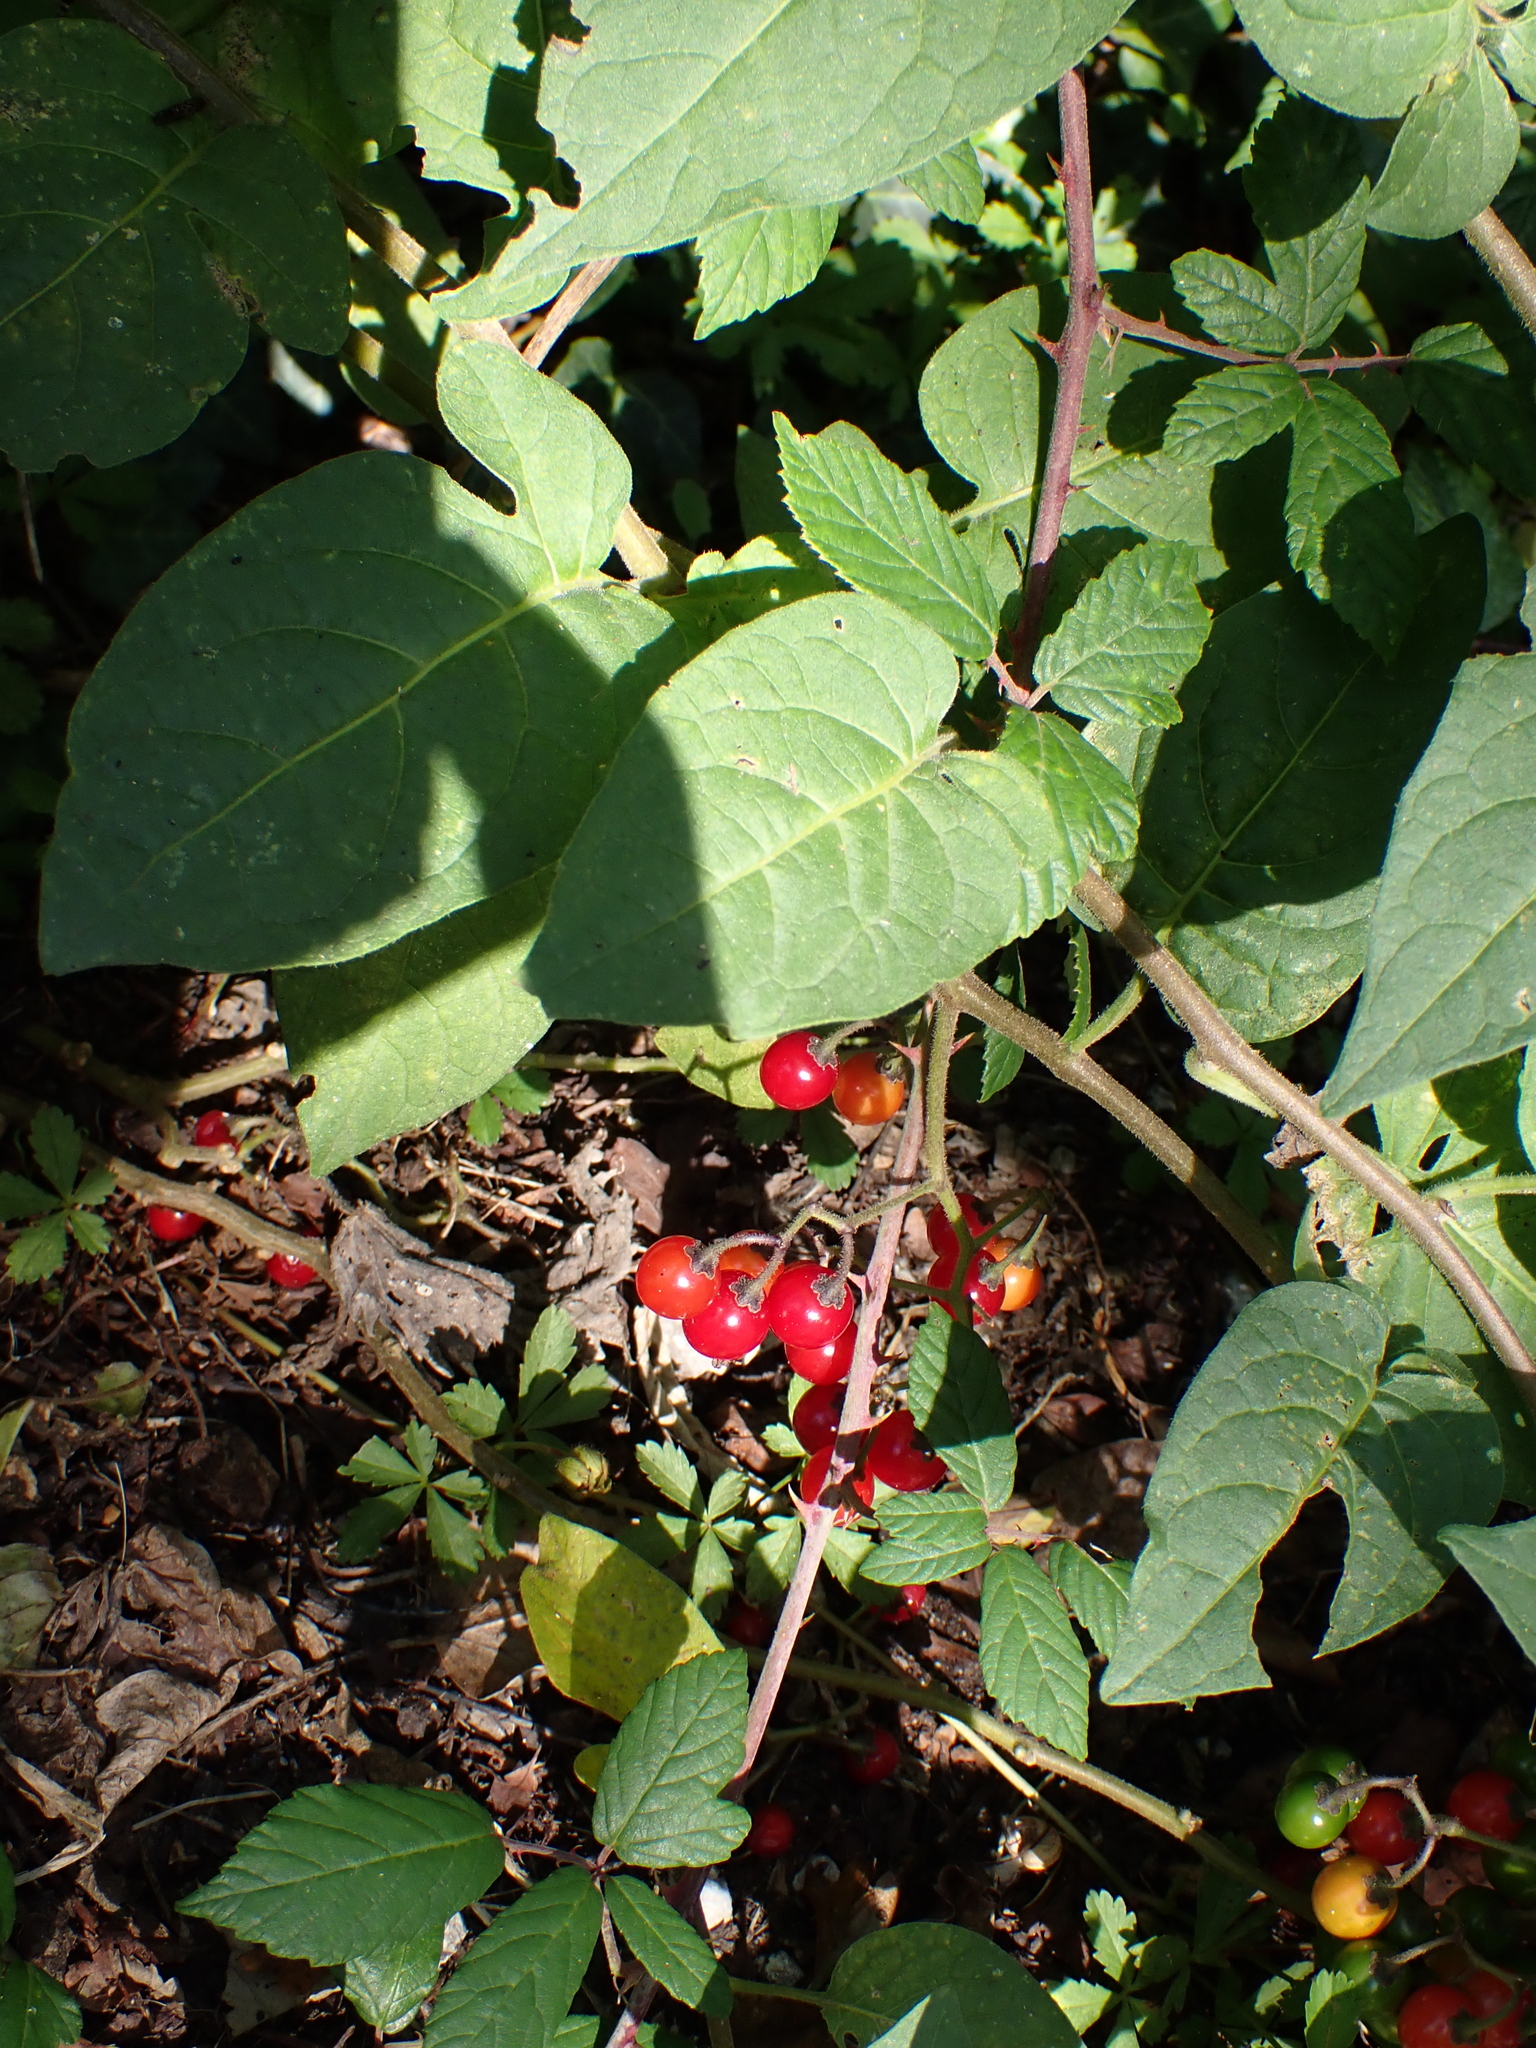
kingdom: Plantae
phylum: Tracheophyta
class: Magnoliopsida
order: Solanales
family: Solanaceae
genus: Solanum
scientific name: Solanum dulcamara
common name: Climbing nightshade
